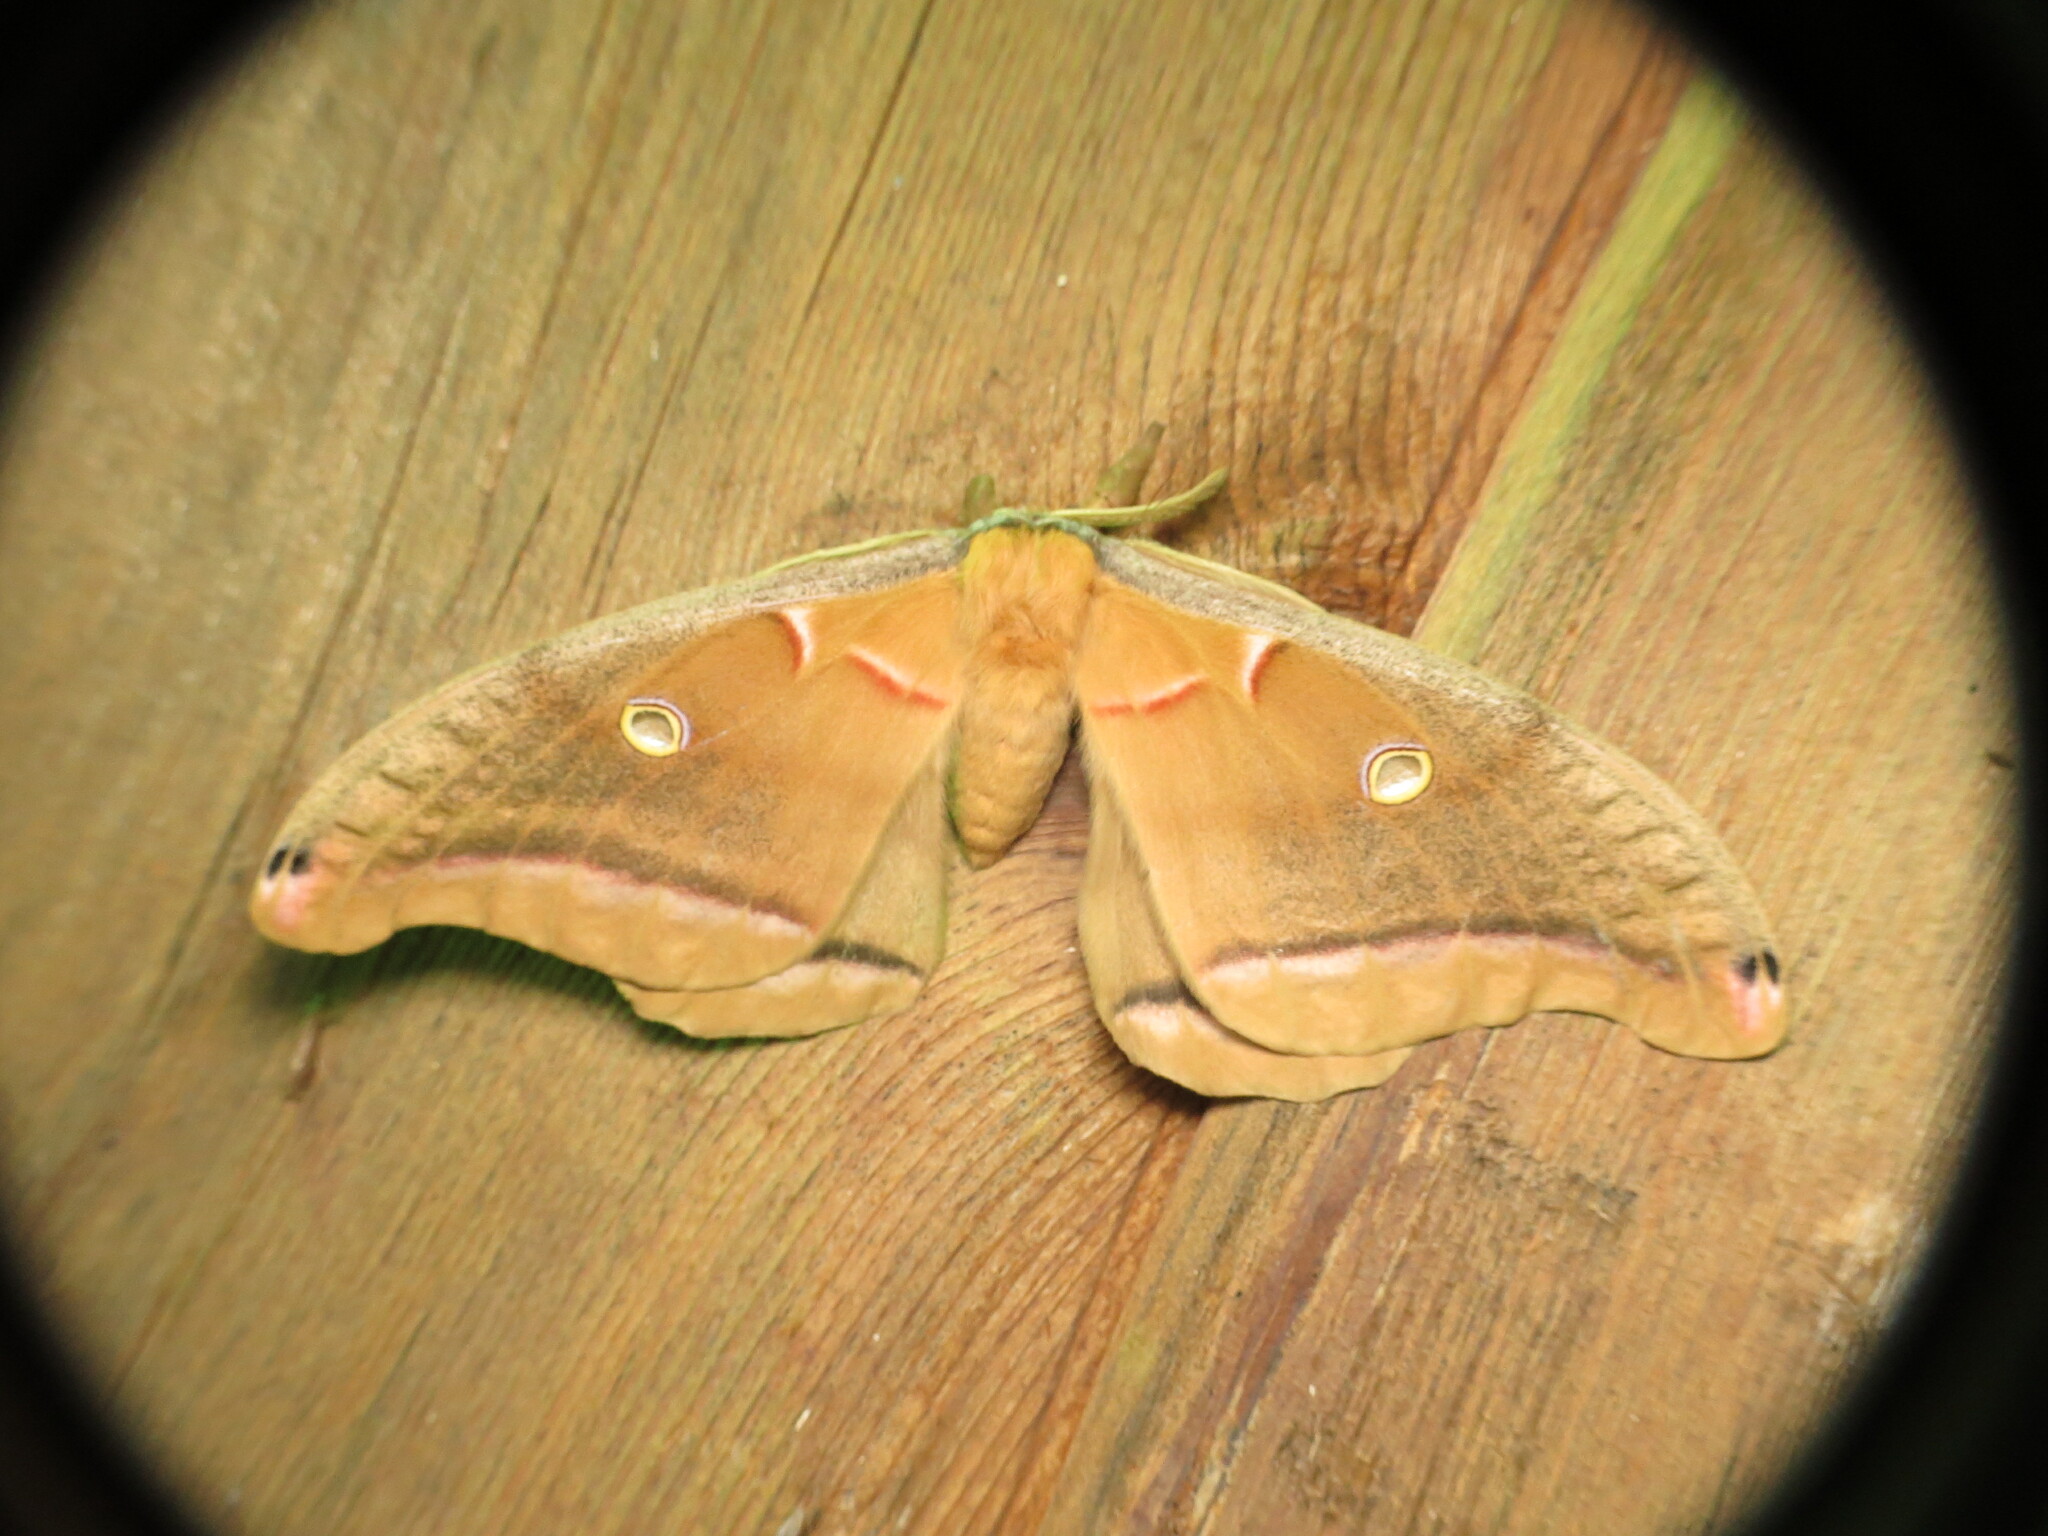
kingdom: Animalia
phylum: Arthropoda
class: Insecta
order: Lepidoptera
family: Saturniidae
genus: Antheraea
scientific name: Antheraea polyphemus
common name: Polyphemus moth
